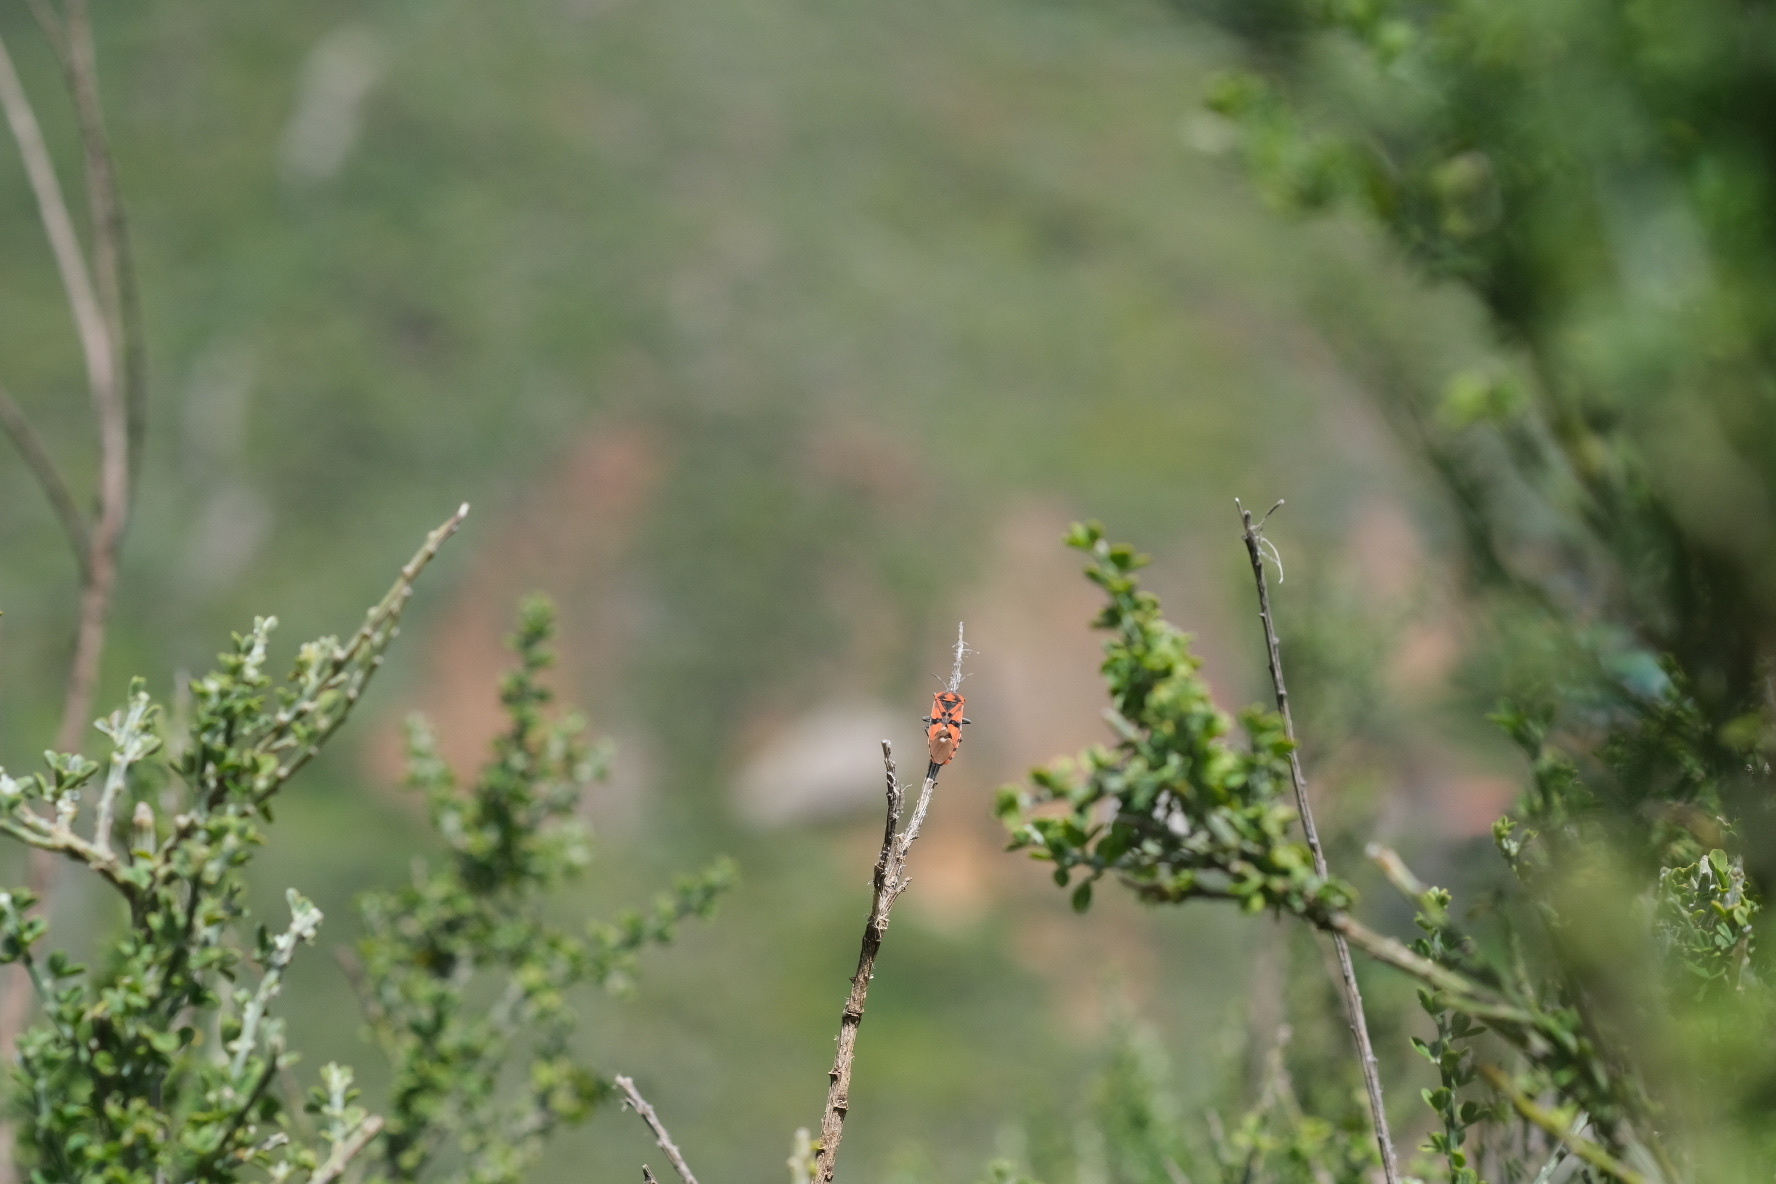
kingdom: Animalia
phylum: Arthropoda
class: Insecta
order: Hemiptera
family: Lygaeidae
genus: Spilostethus
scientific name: Spilostethus pandurus
